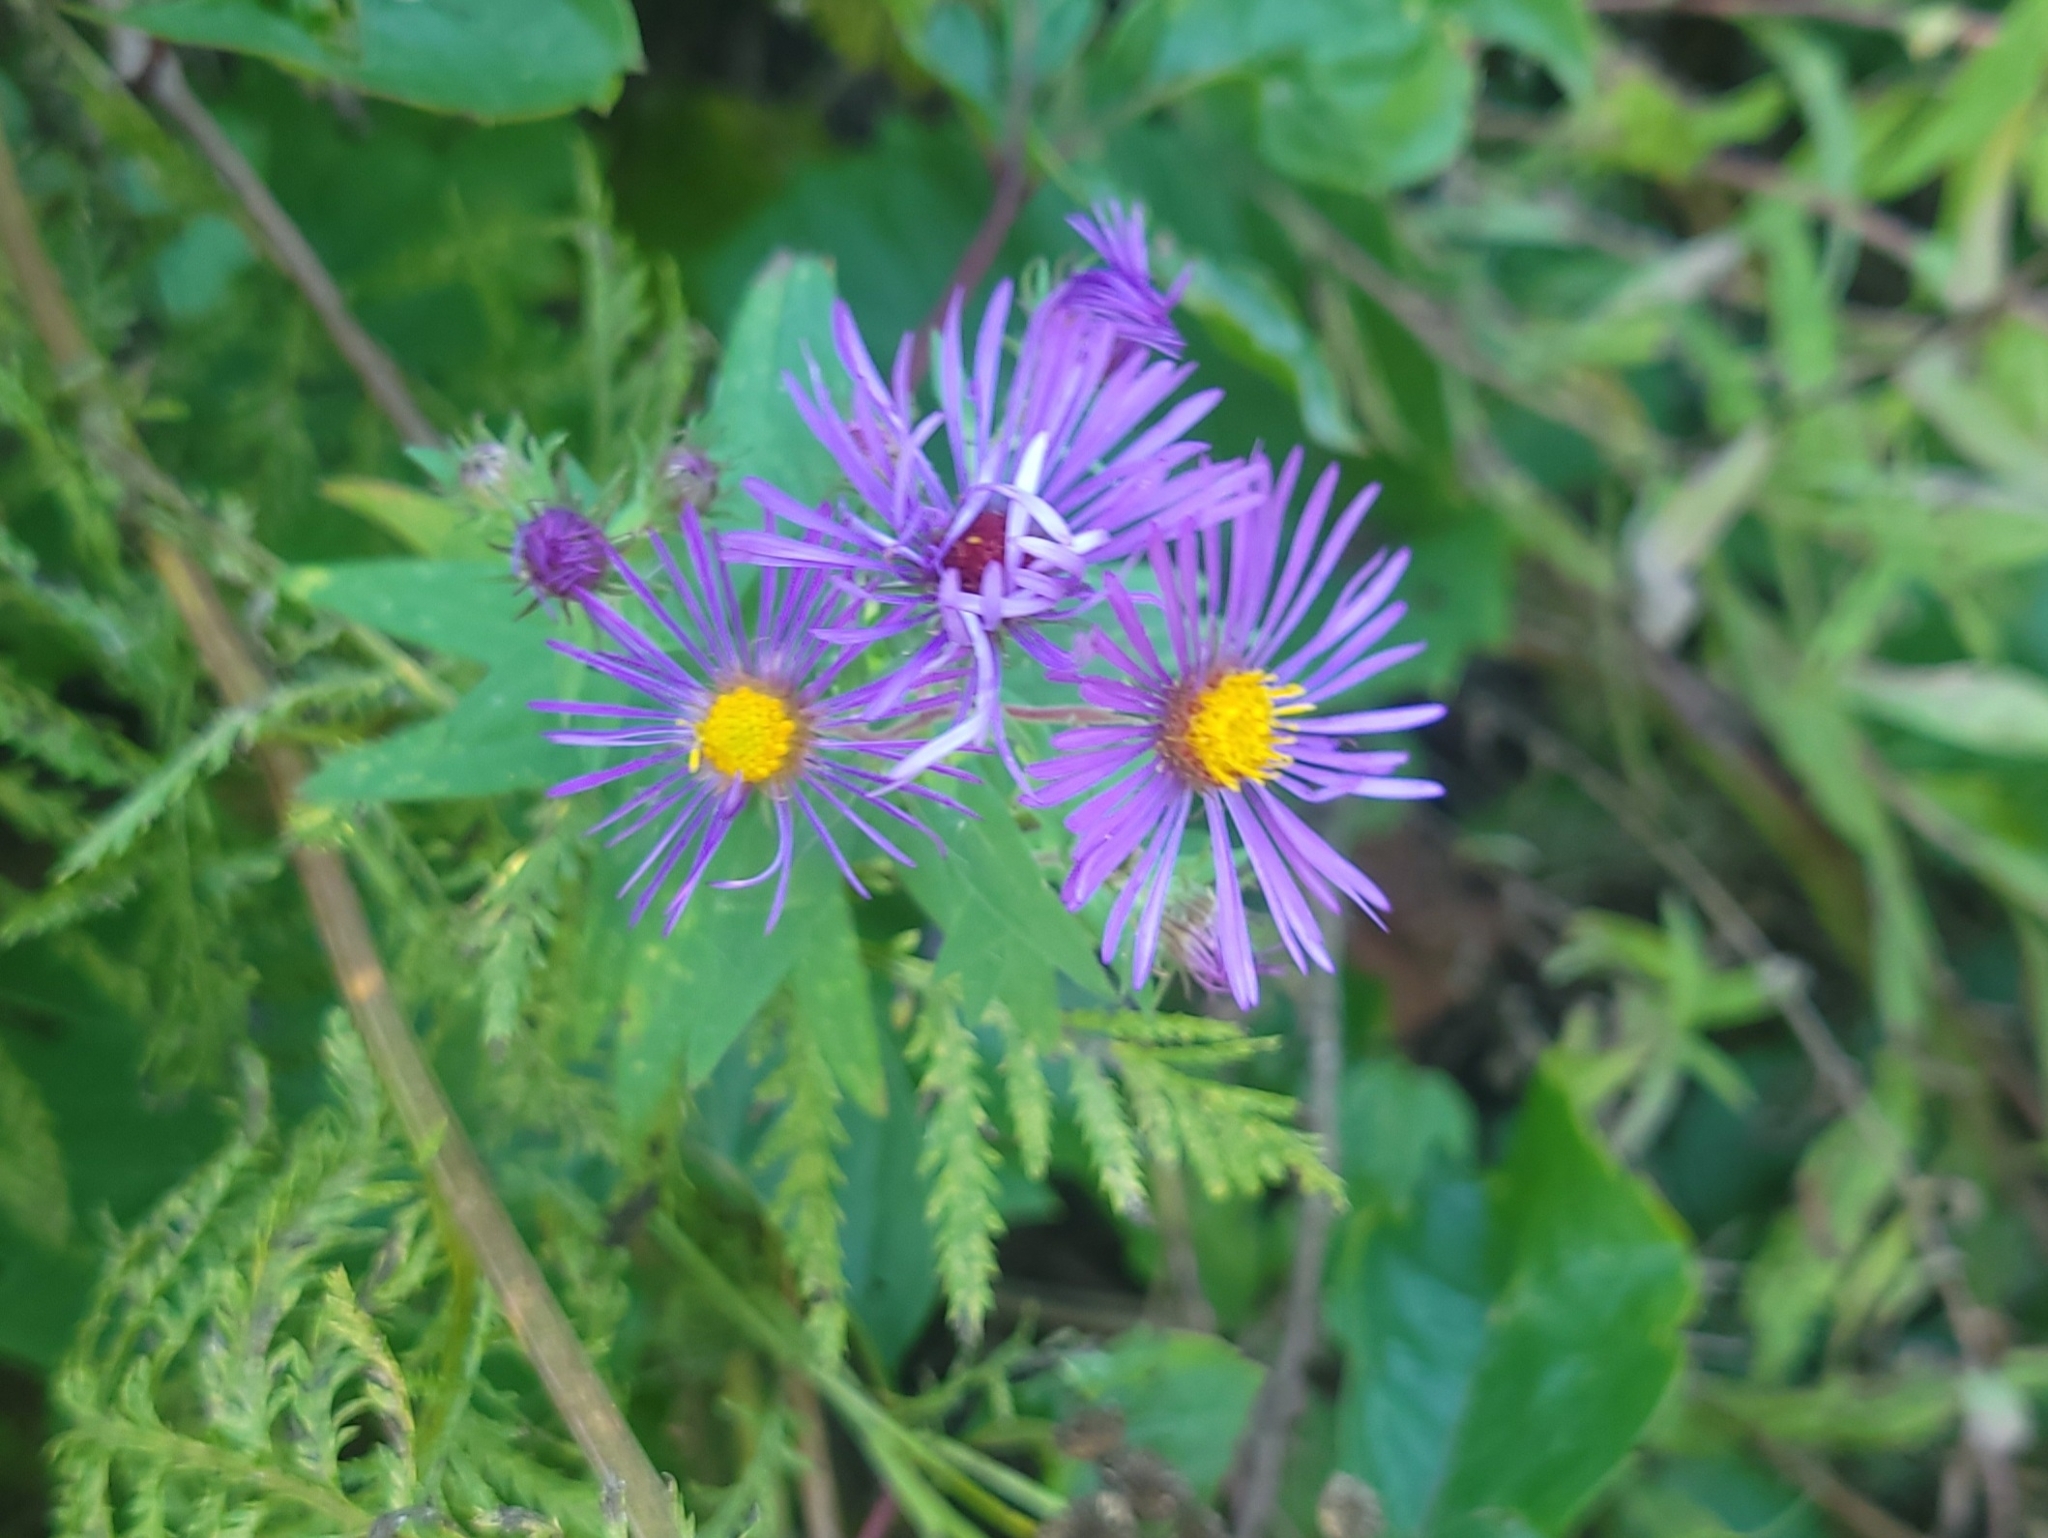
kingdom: Plantae
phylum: Tracheophyta
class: Magnoliopsida
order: Asterales
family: Asteraceae
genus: Symphyotrichum
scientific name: Symphyotrichum novae-angliae
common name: Michaelmas daisy
